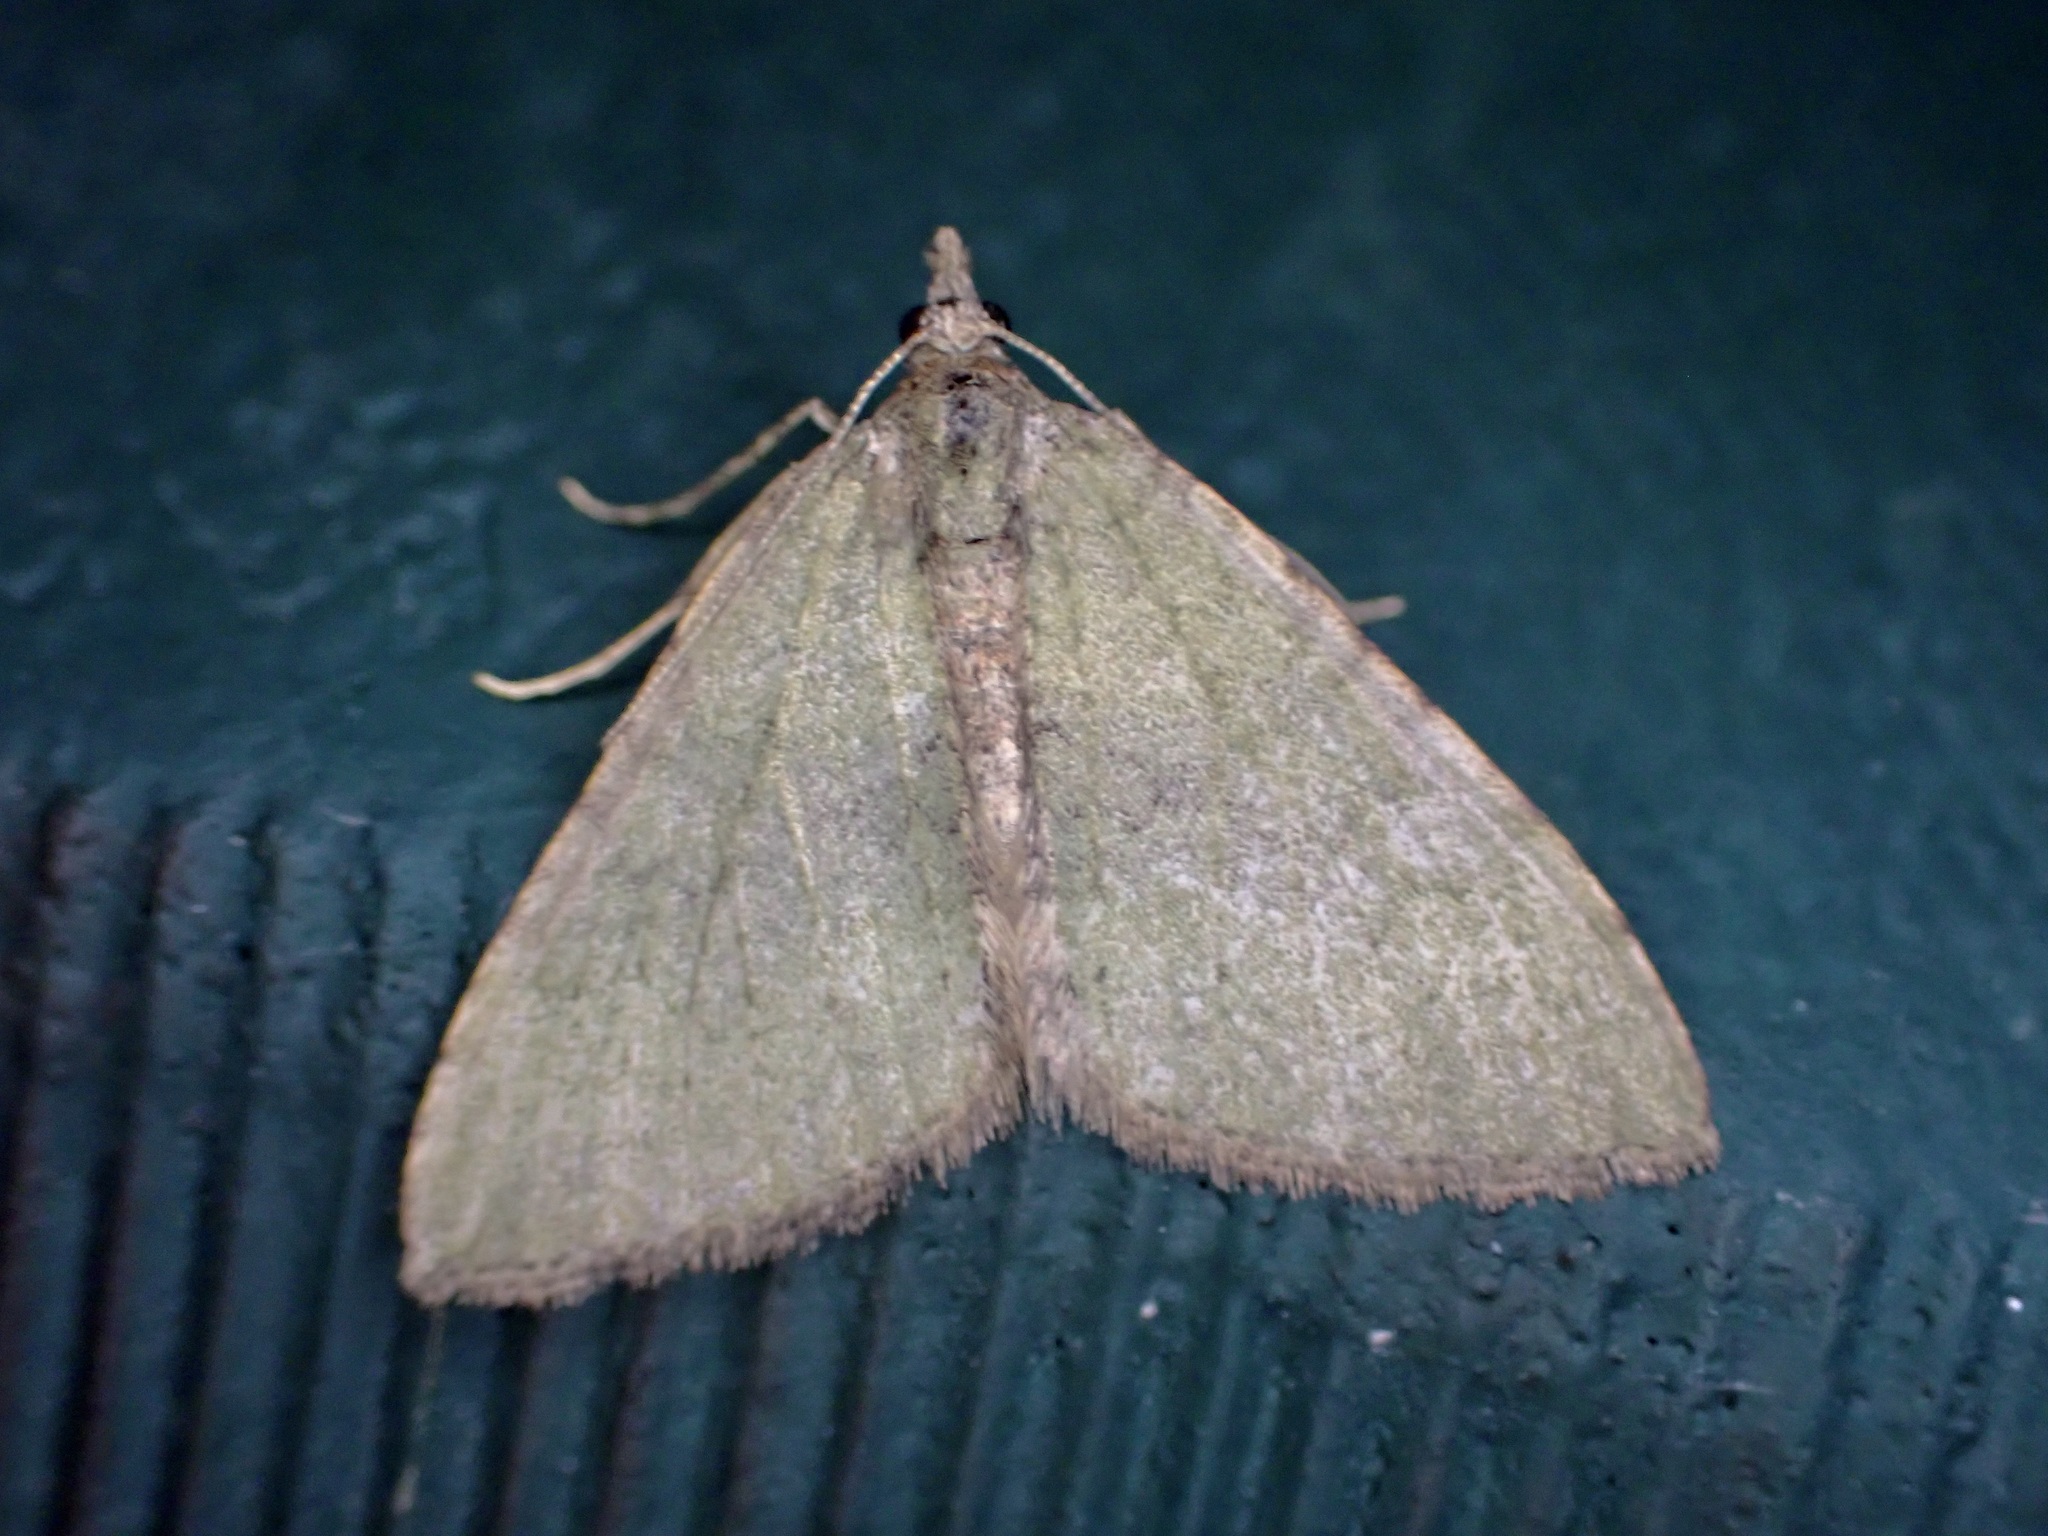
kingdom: Animalia
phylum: Arthropoda
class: Insecta
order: Lepidoptera
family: Geometridae
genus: Epyaxa
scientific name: Epyaxa rosearia
